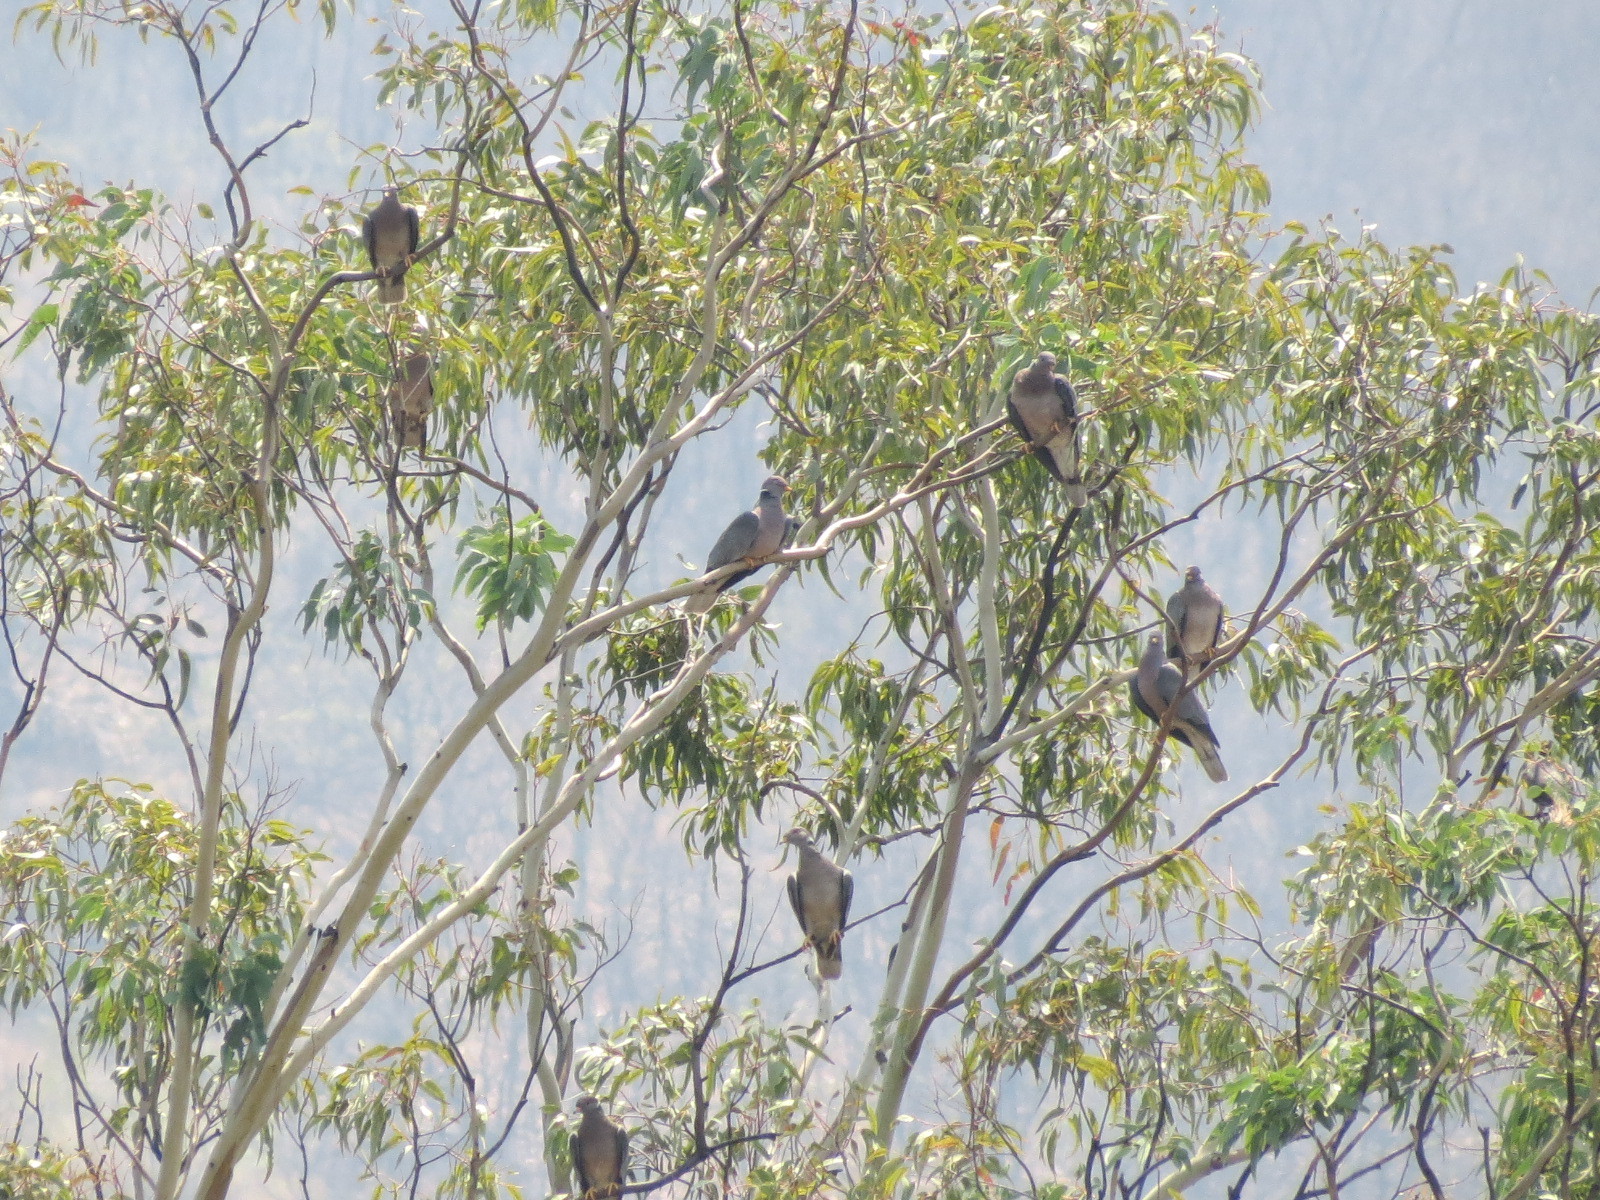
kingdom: Animalia
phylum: Chordata
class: Aves
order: Columbiformes
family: Columbidae
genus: Patagioenas
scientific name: Patagioenas fasciata
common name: Band-tailed pigeon
